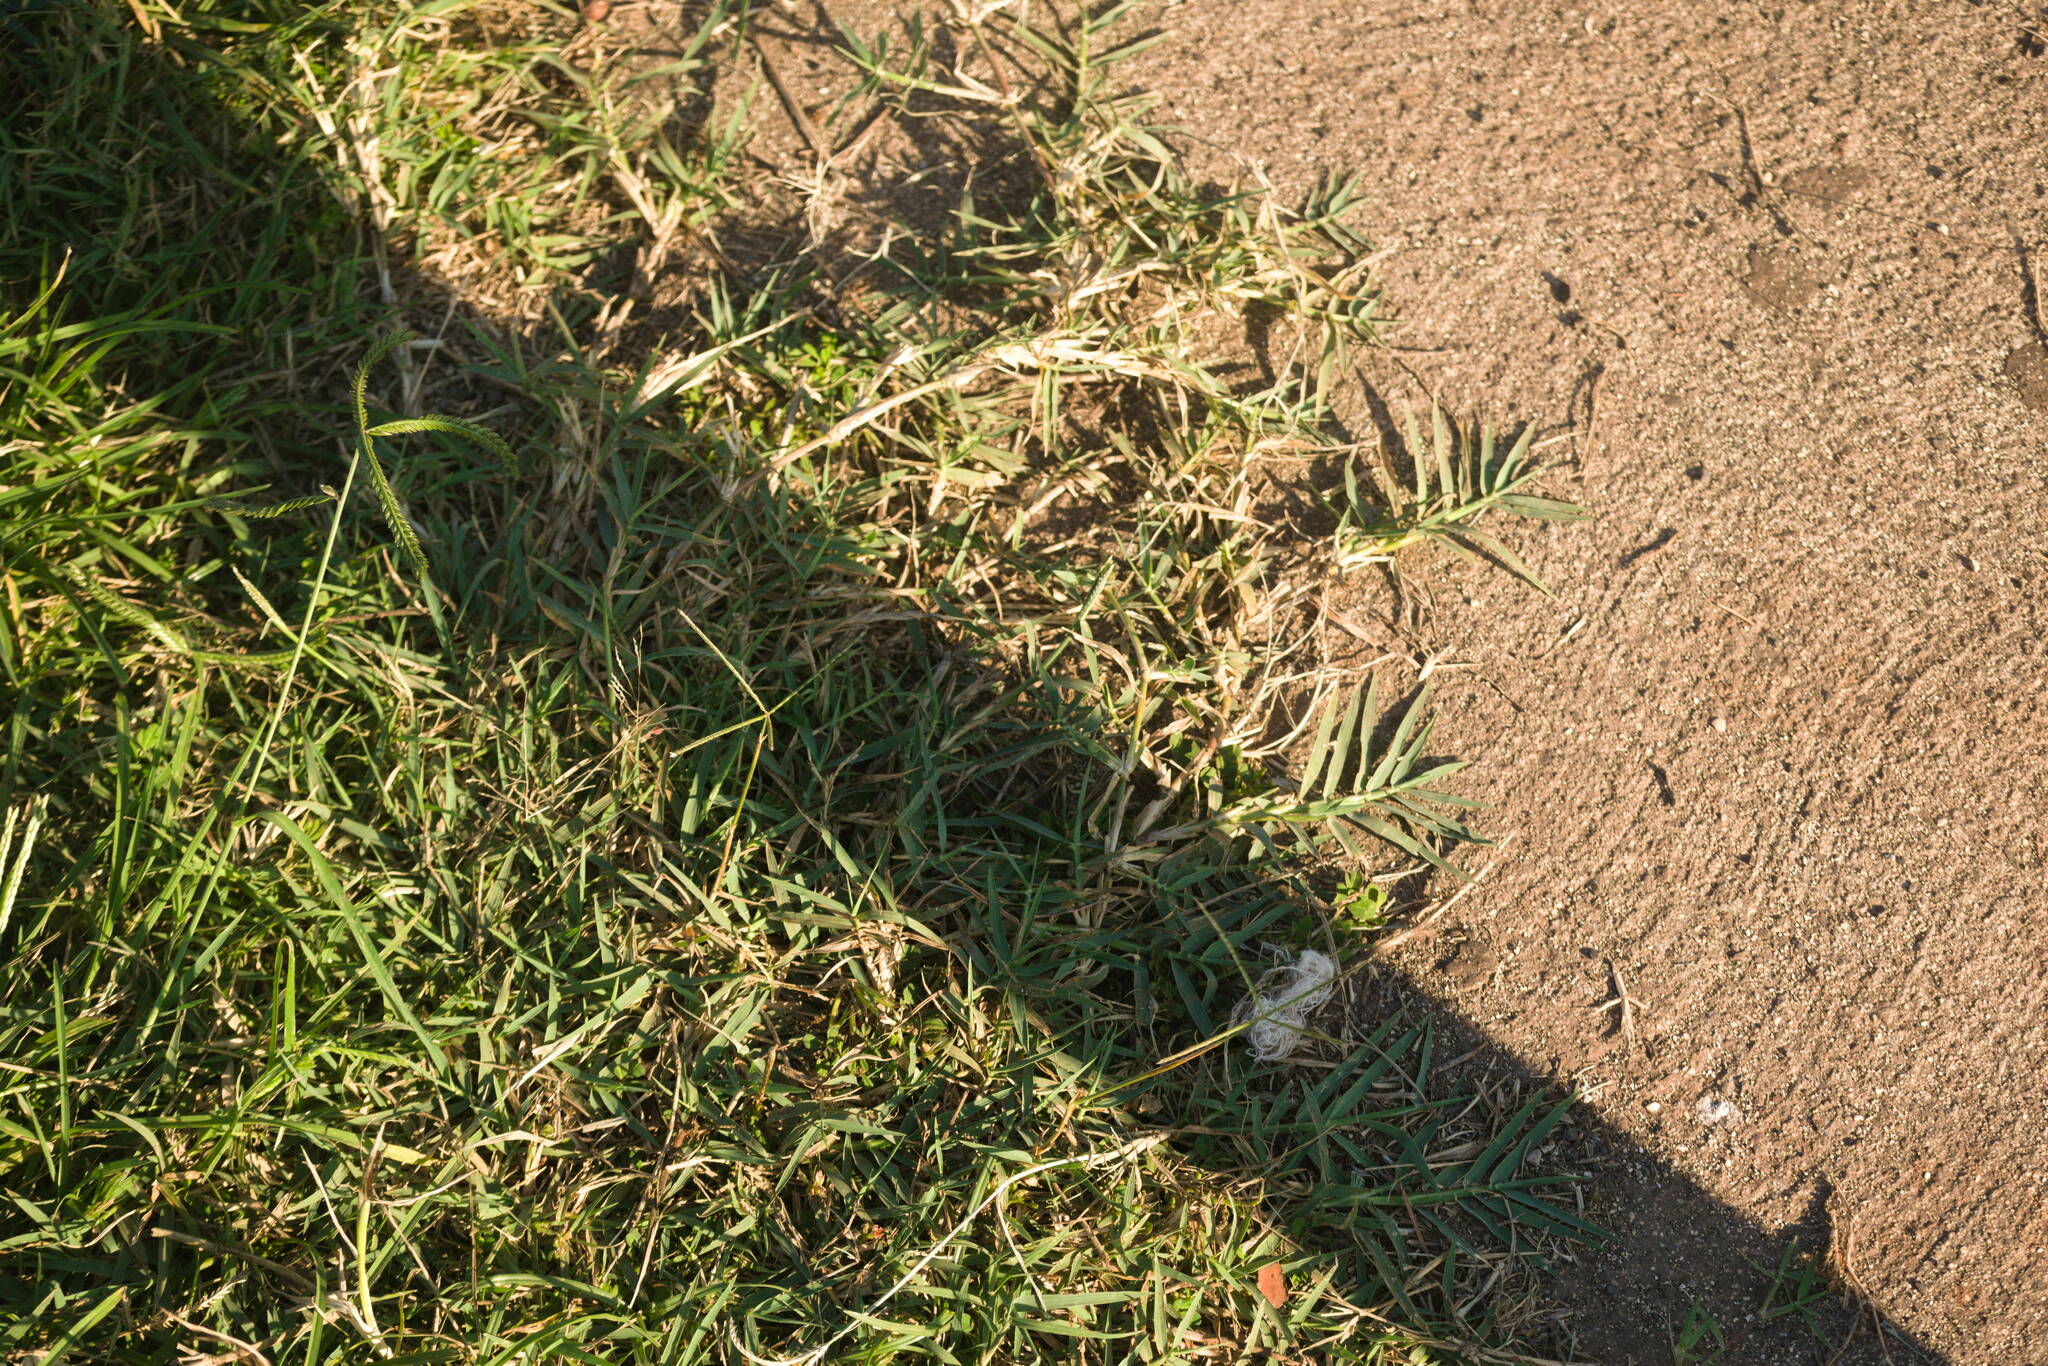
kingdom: Plantae
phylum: Tracheophyta
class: Liliopsida
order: Poales
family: Poaceae
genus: Cynodon
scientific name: Cynodon dactylon
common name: Bermuda grass
